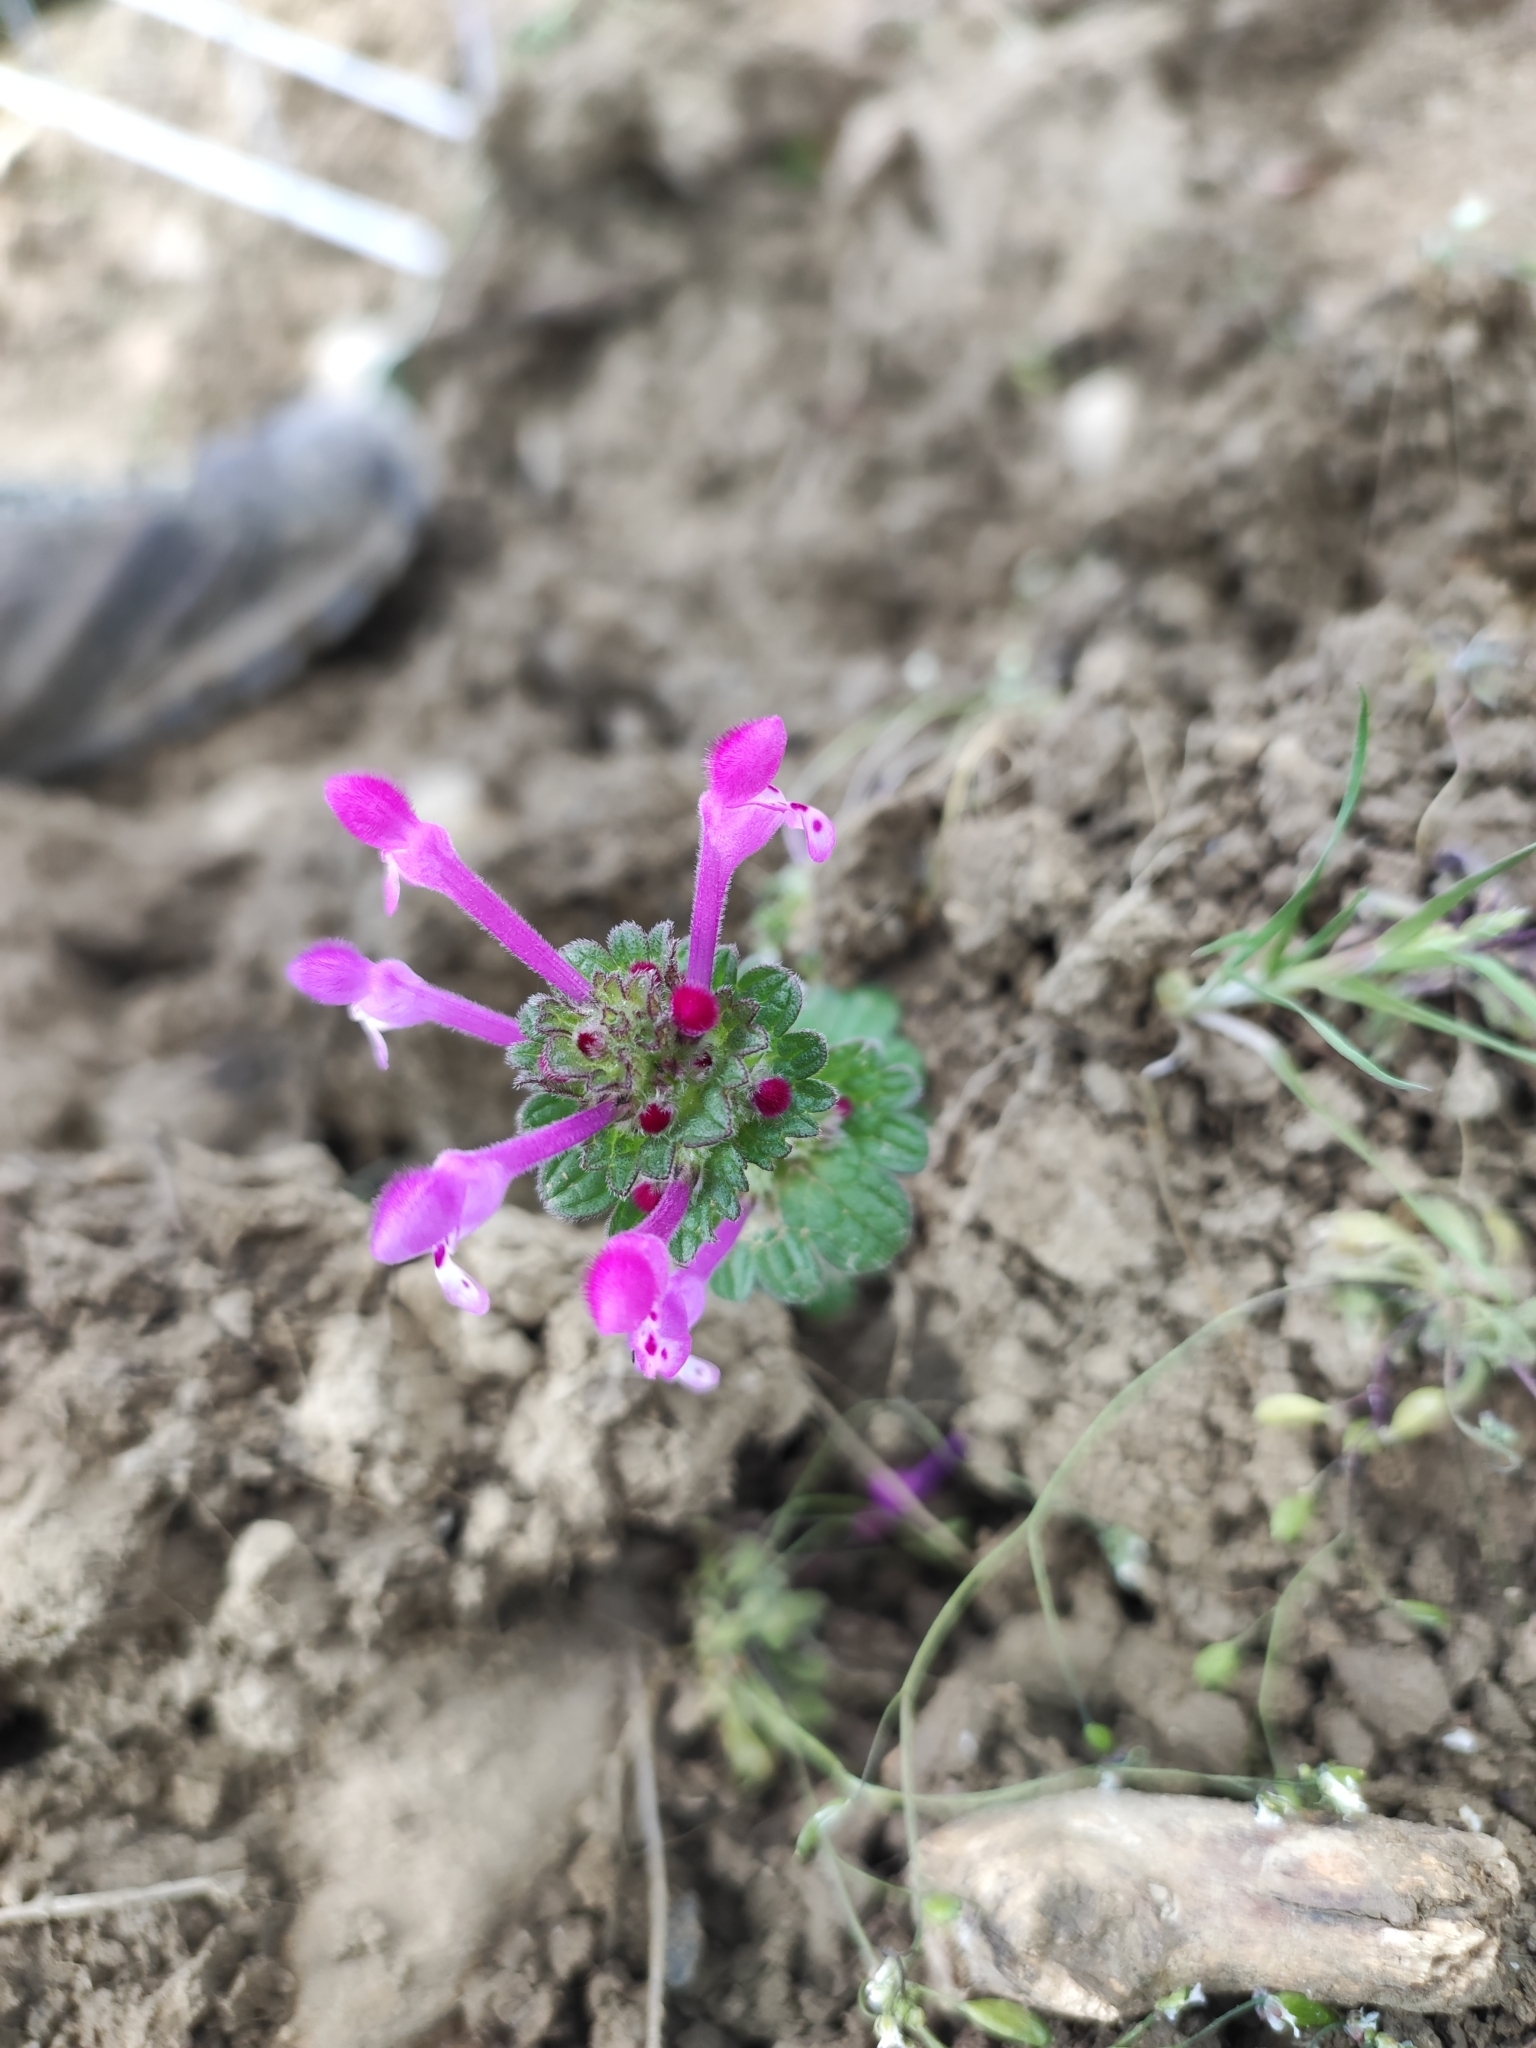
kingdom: Plantae
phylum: Tracheophyta
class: Magnoliopsida
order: Lamiales
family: Lamiaceae
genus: Lamium
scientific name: Lamium amplexicaule
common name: Henbit dead-nettle
